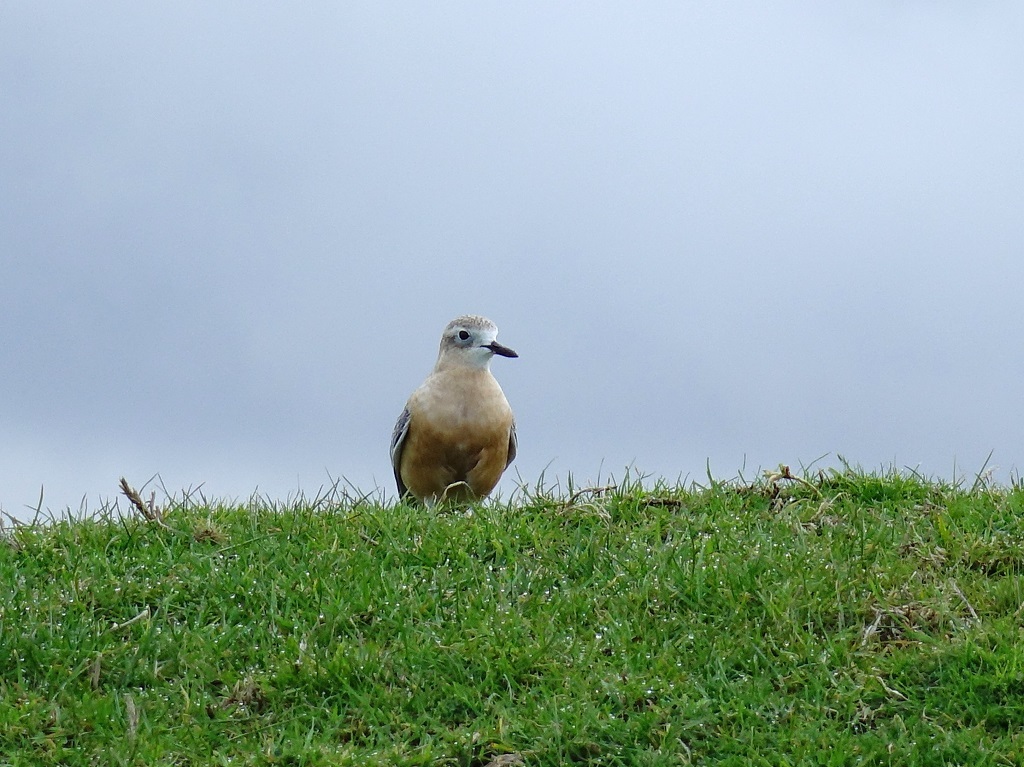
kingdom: Animalia
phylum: Chordata
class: Aves
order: Charadriiformes
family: Charadriidae
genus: Anarhynchus
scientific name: Anarhynchus
